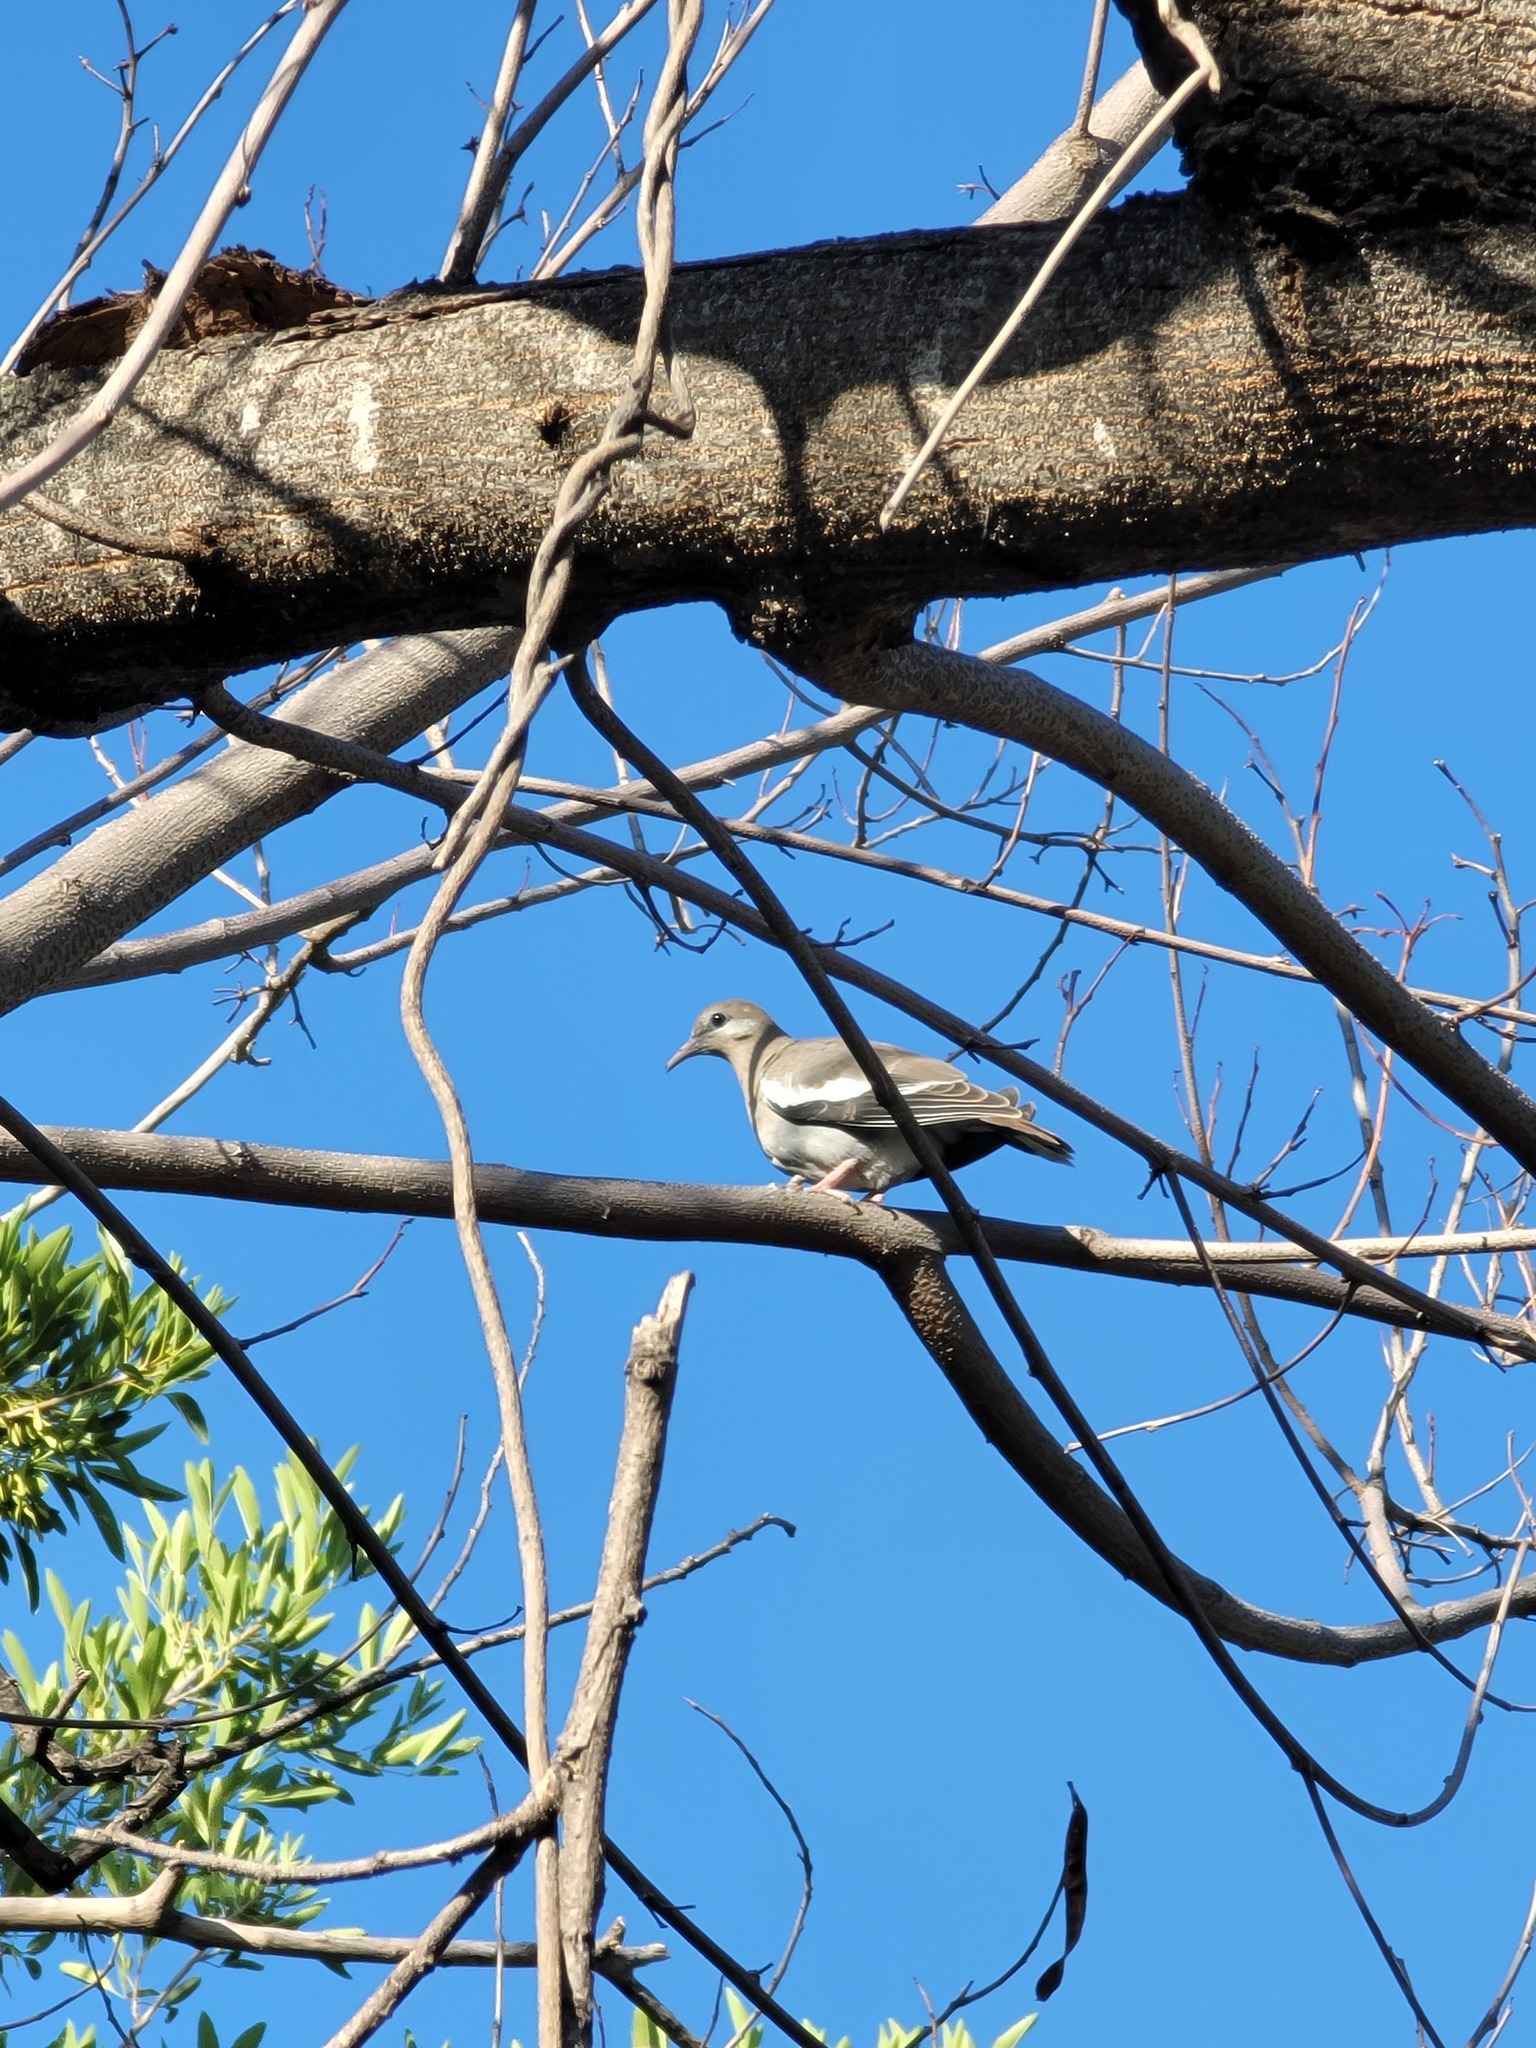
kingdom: Animalia
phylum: Chordata
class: Aves
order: Columbiformes
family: Columbidae
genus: Zenaida
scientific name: Zenaida asiatica
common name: White-winged dove
